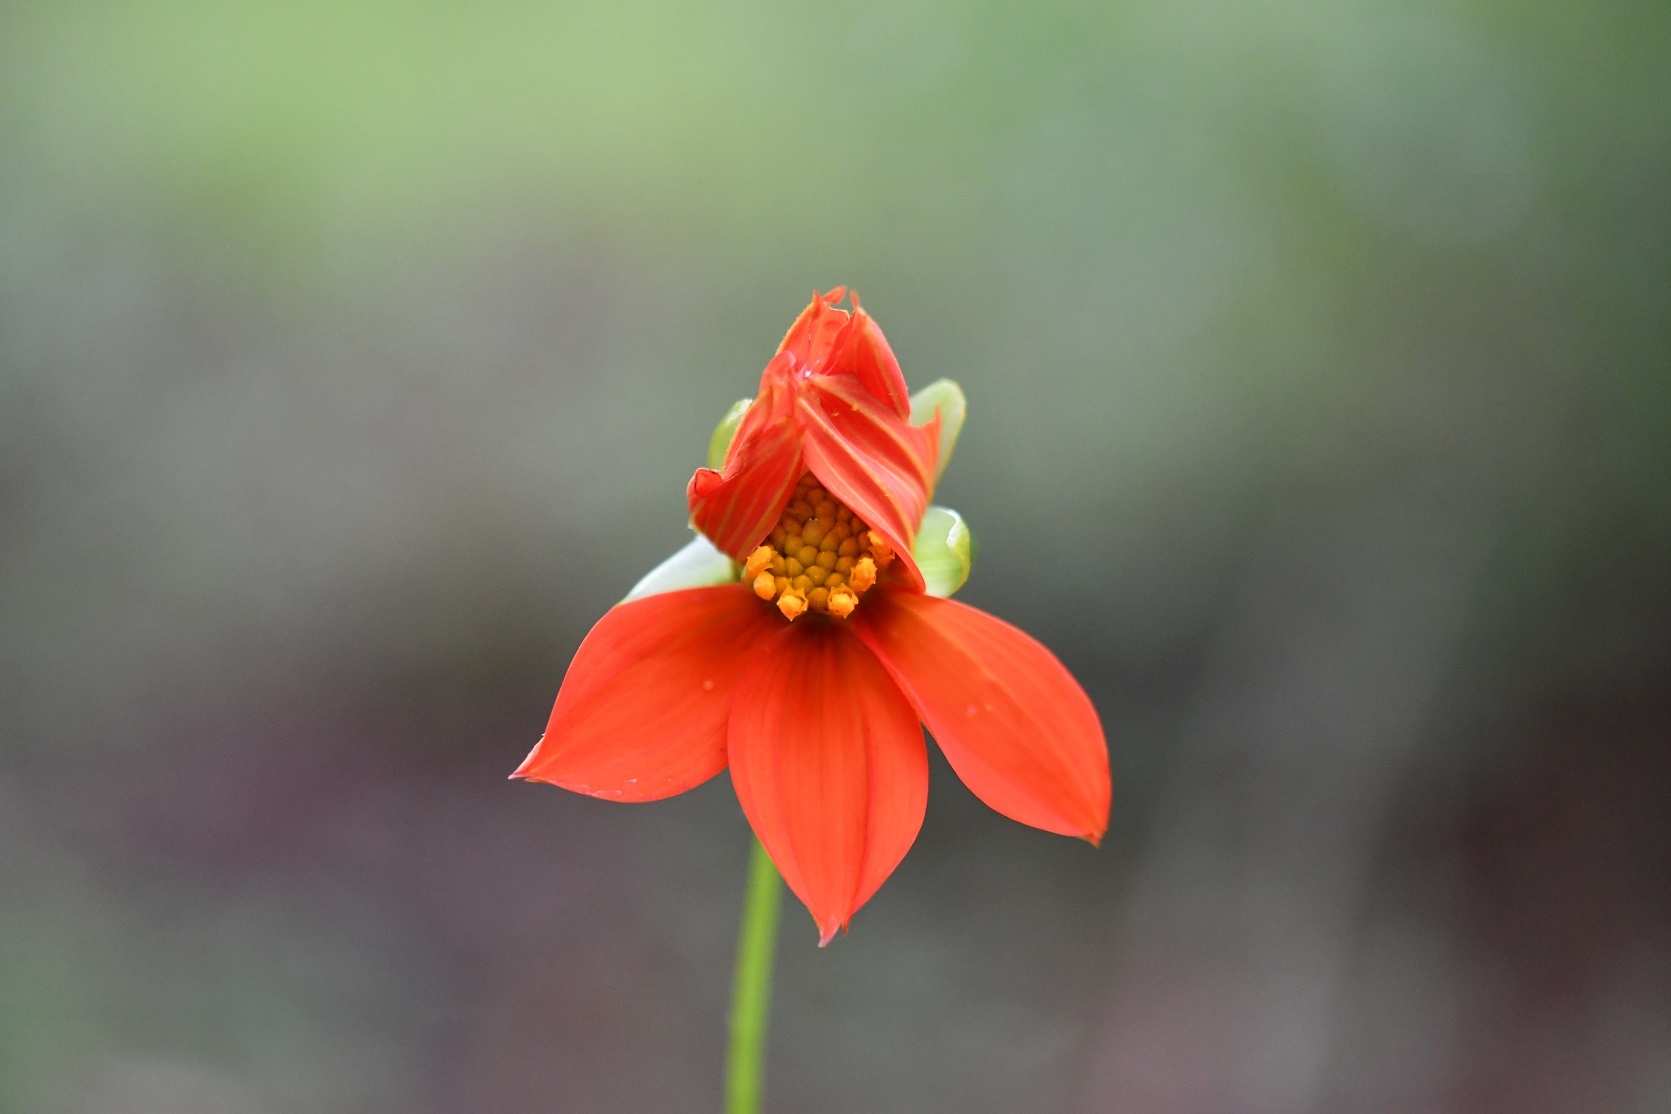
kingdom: Plantae
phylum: Tracheophyta
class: Magnoliopsida
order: Asterales
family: Asteraceae
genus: Dahlia
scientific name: Dahlia coccinea
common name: Red dahlia
